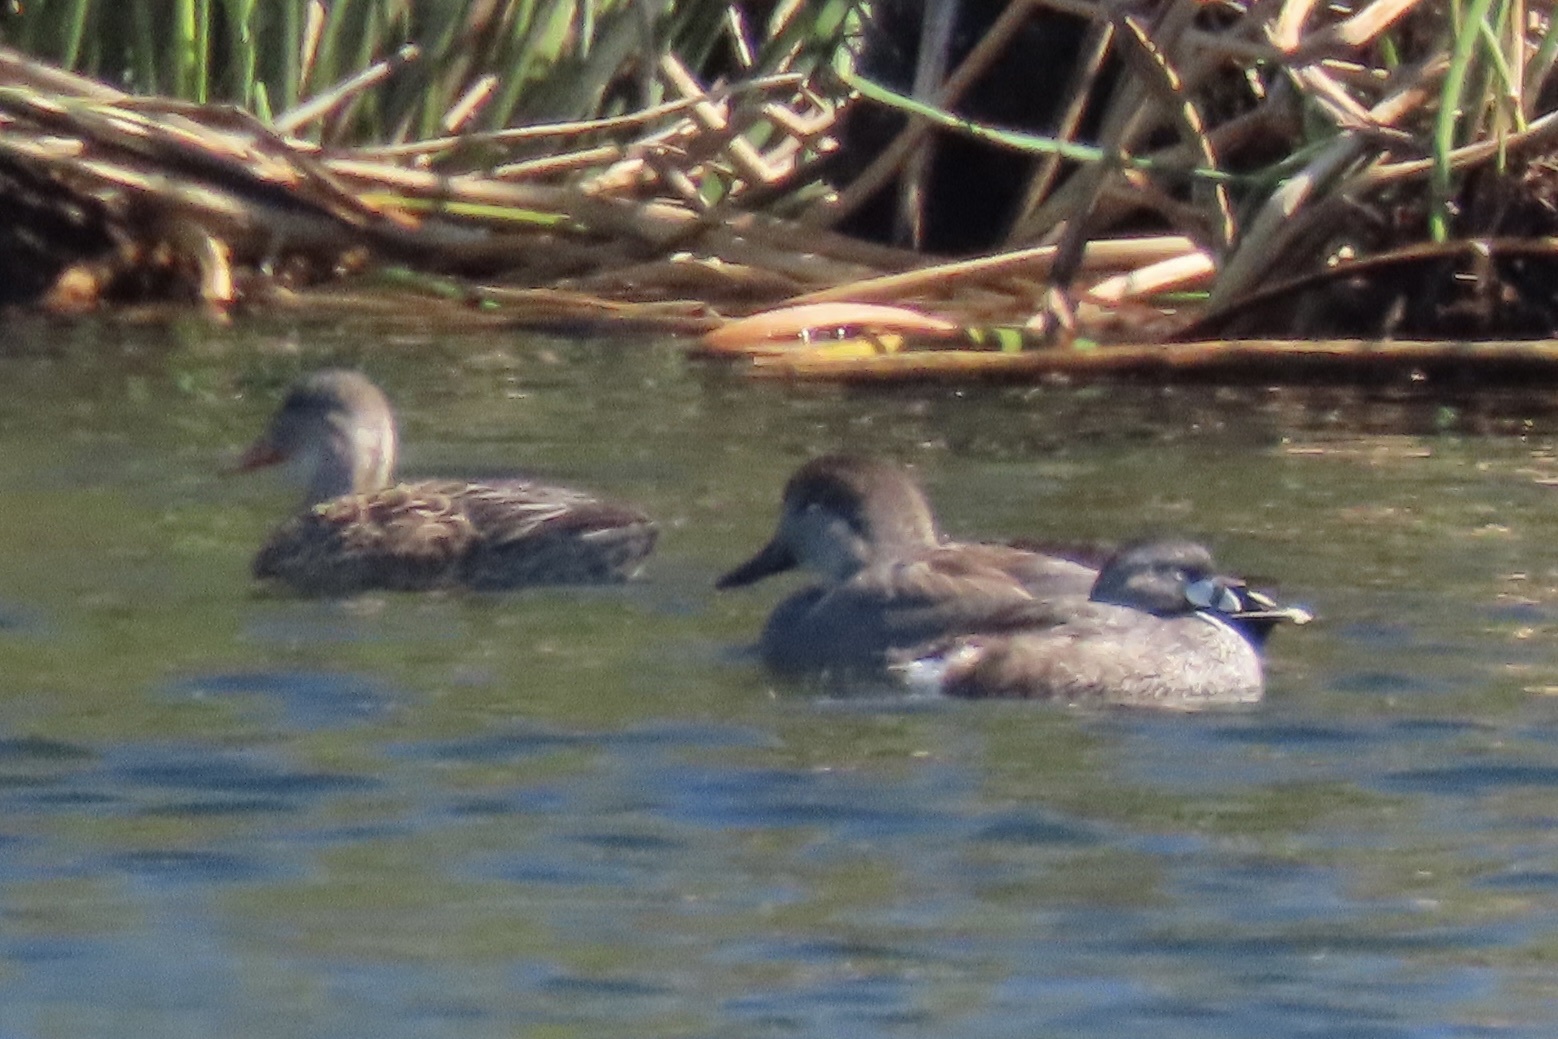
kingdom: Animalia
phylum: Chordata
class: Aves
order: Anseriformes
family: Anatidae
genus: Mareca
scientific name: Mareca strepera
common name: Gadwall
